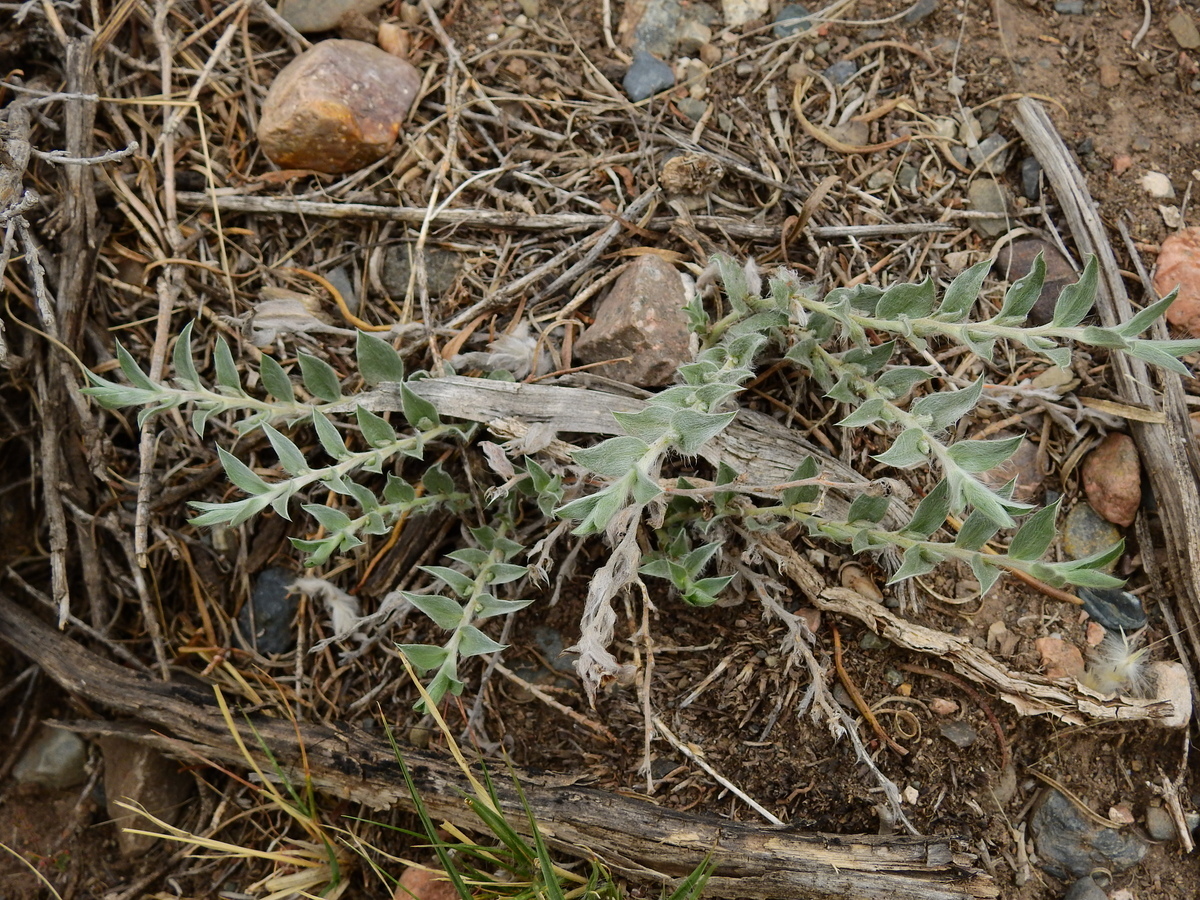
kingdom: Plantae
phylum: Tracheophyta
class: Magnoliopsida
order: Solanales
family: Convolvulaceae
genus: Evolvulus
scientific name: Evolvulus sericeus
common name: Blue dots
